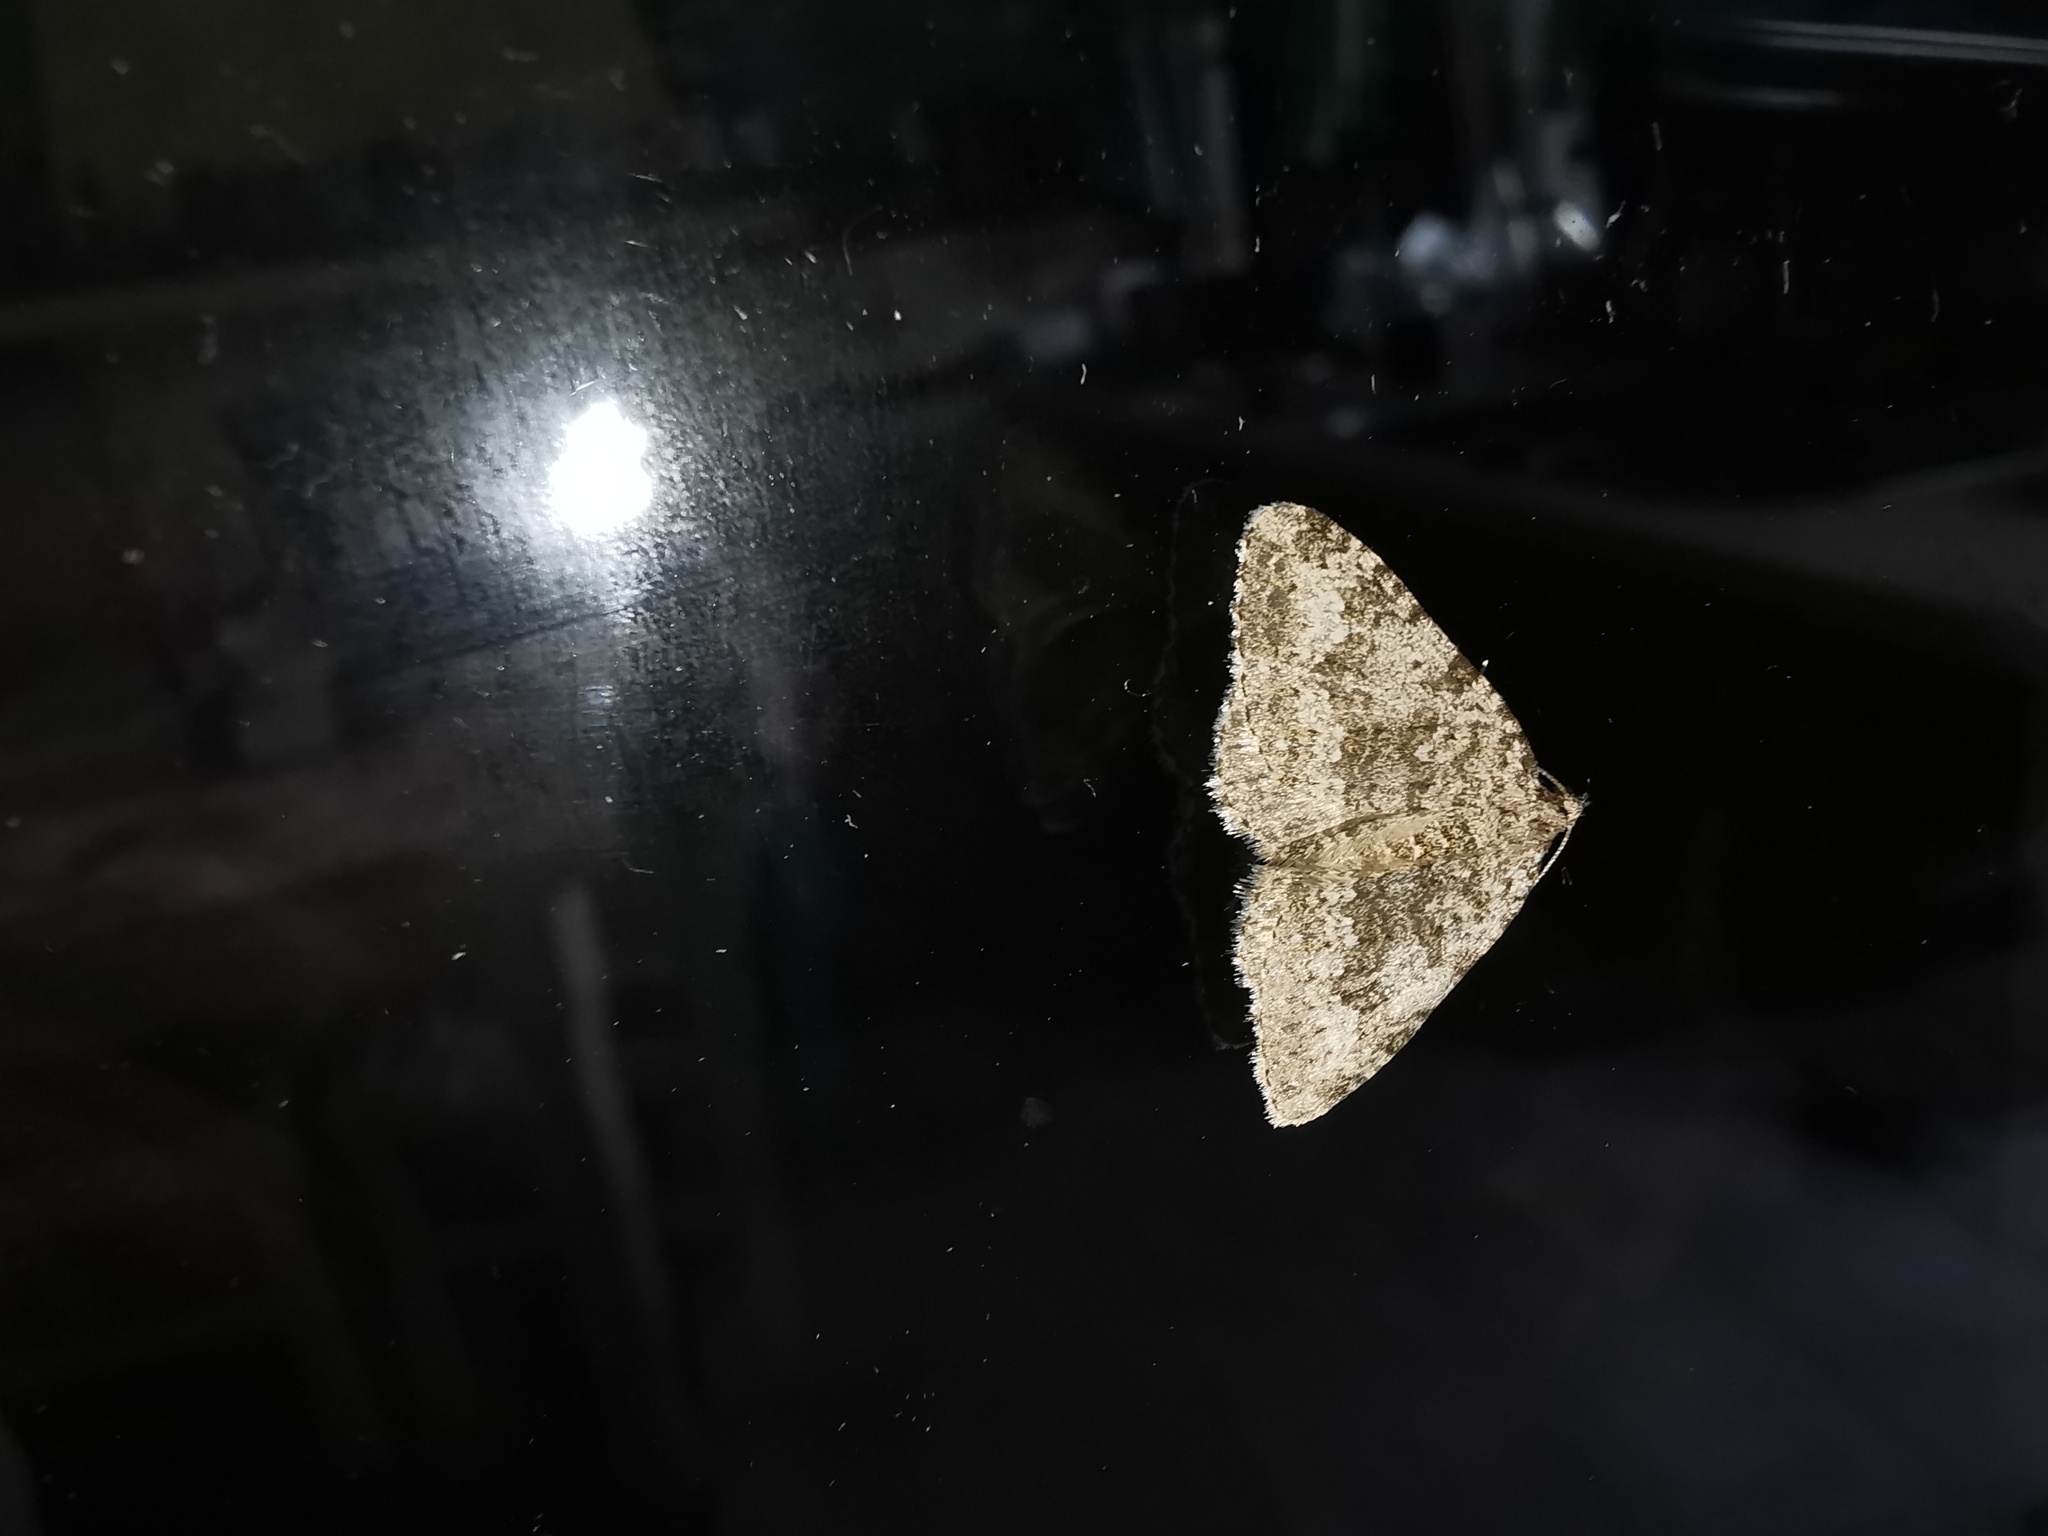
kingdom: Animalia
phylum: Arthropoda
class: Insecta
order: Lepidoptera
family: Geometridae
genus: Nebula
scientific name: Nebula salicata
